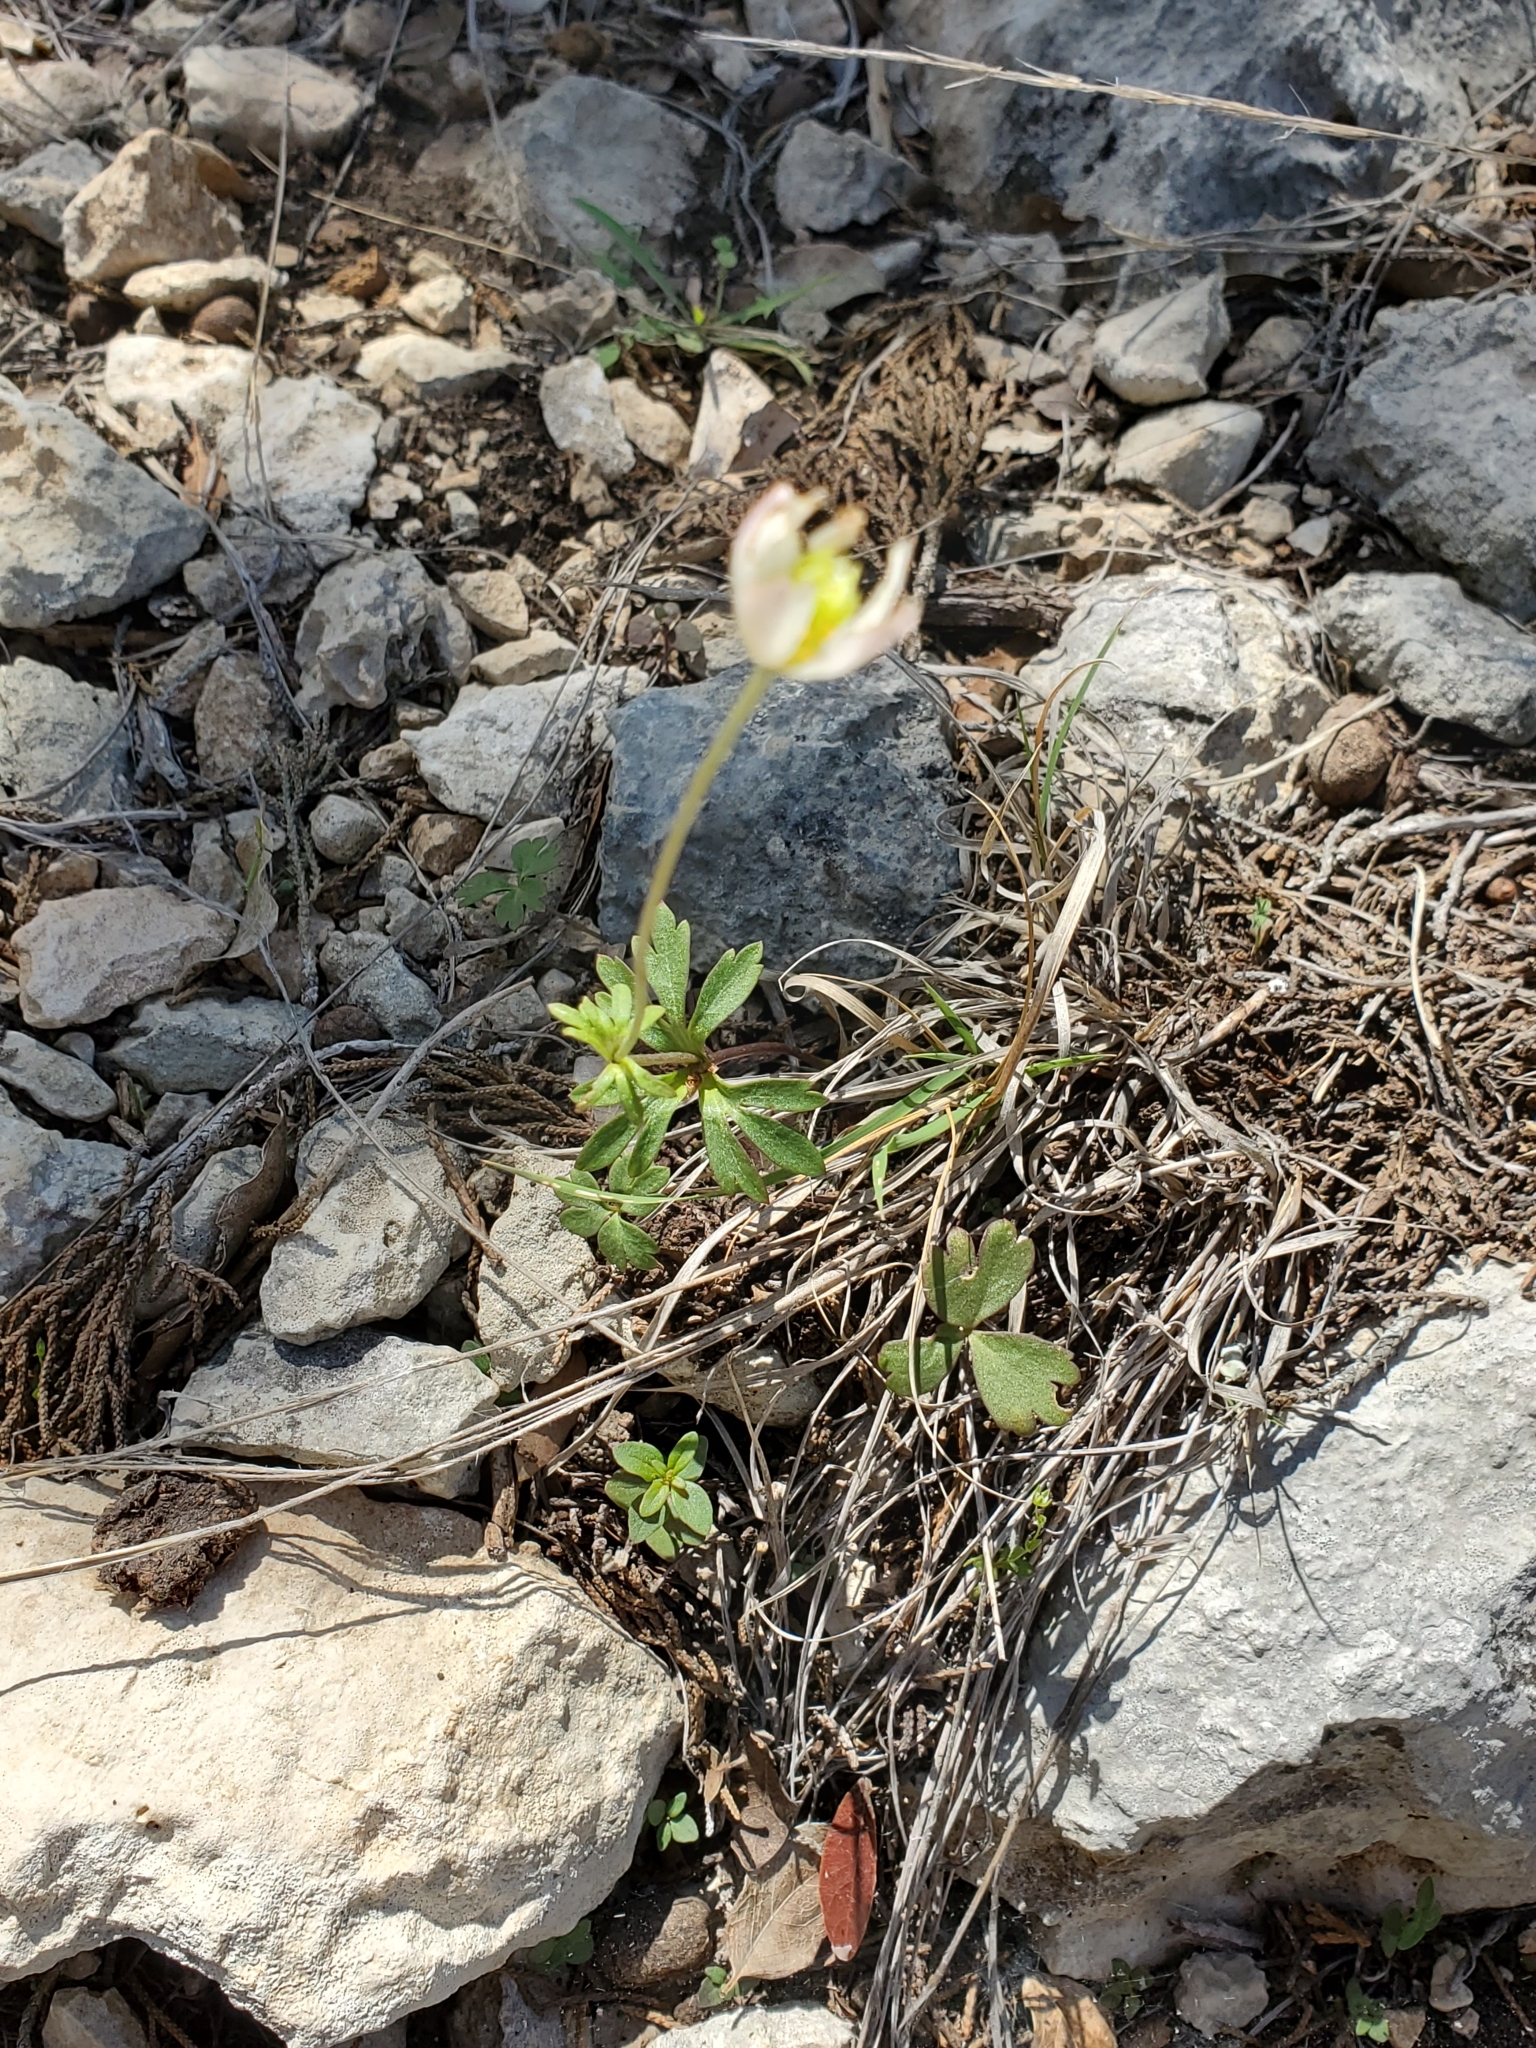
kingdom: Plantae
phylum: Tracheophyta
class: Magnoliopsida
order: Ranunculales
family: Ranunculaceae
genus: Anemone
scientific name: Anemone edwardsiana
